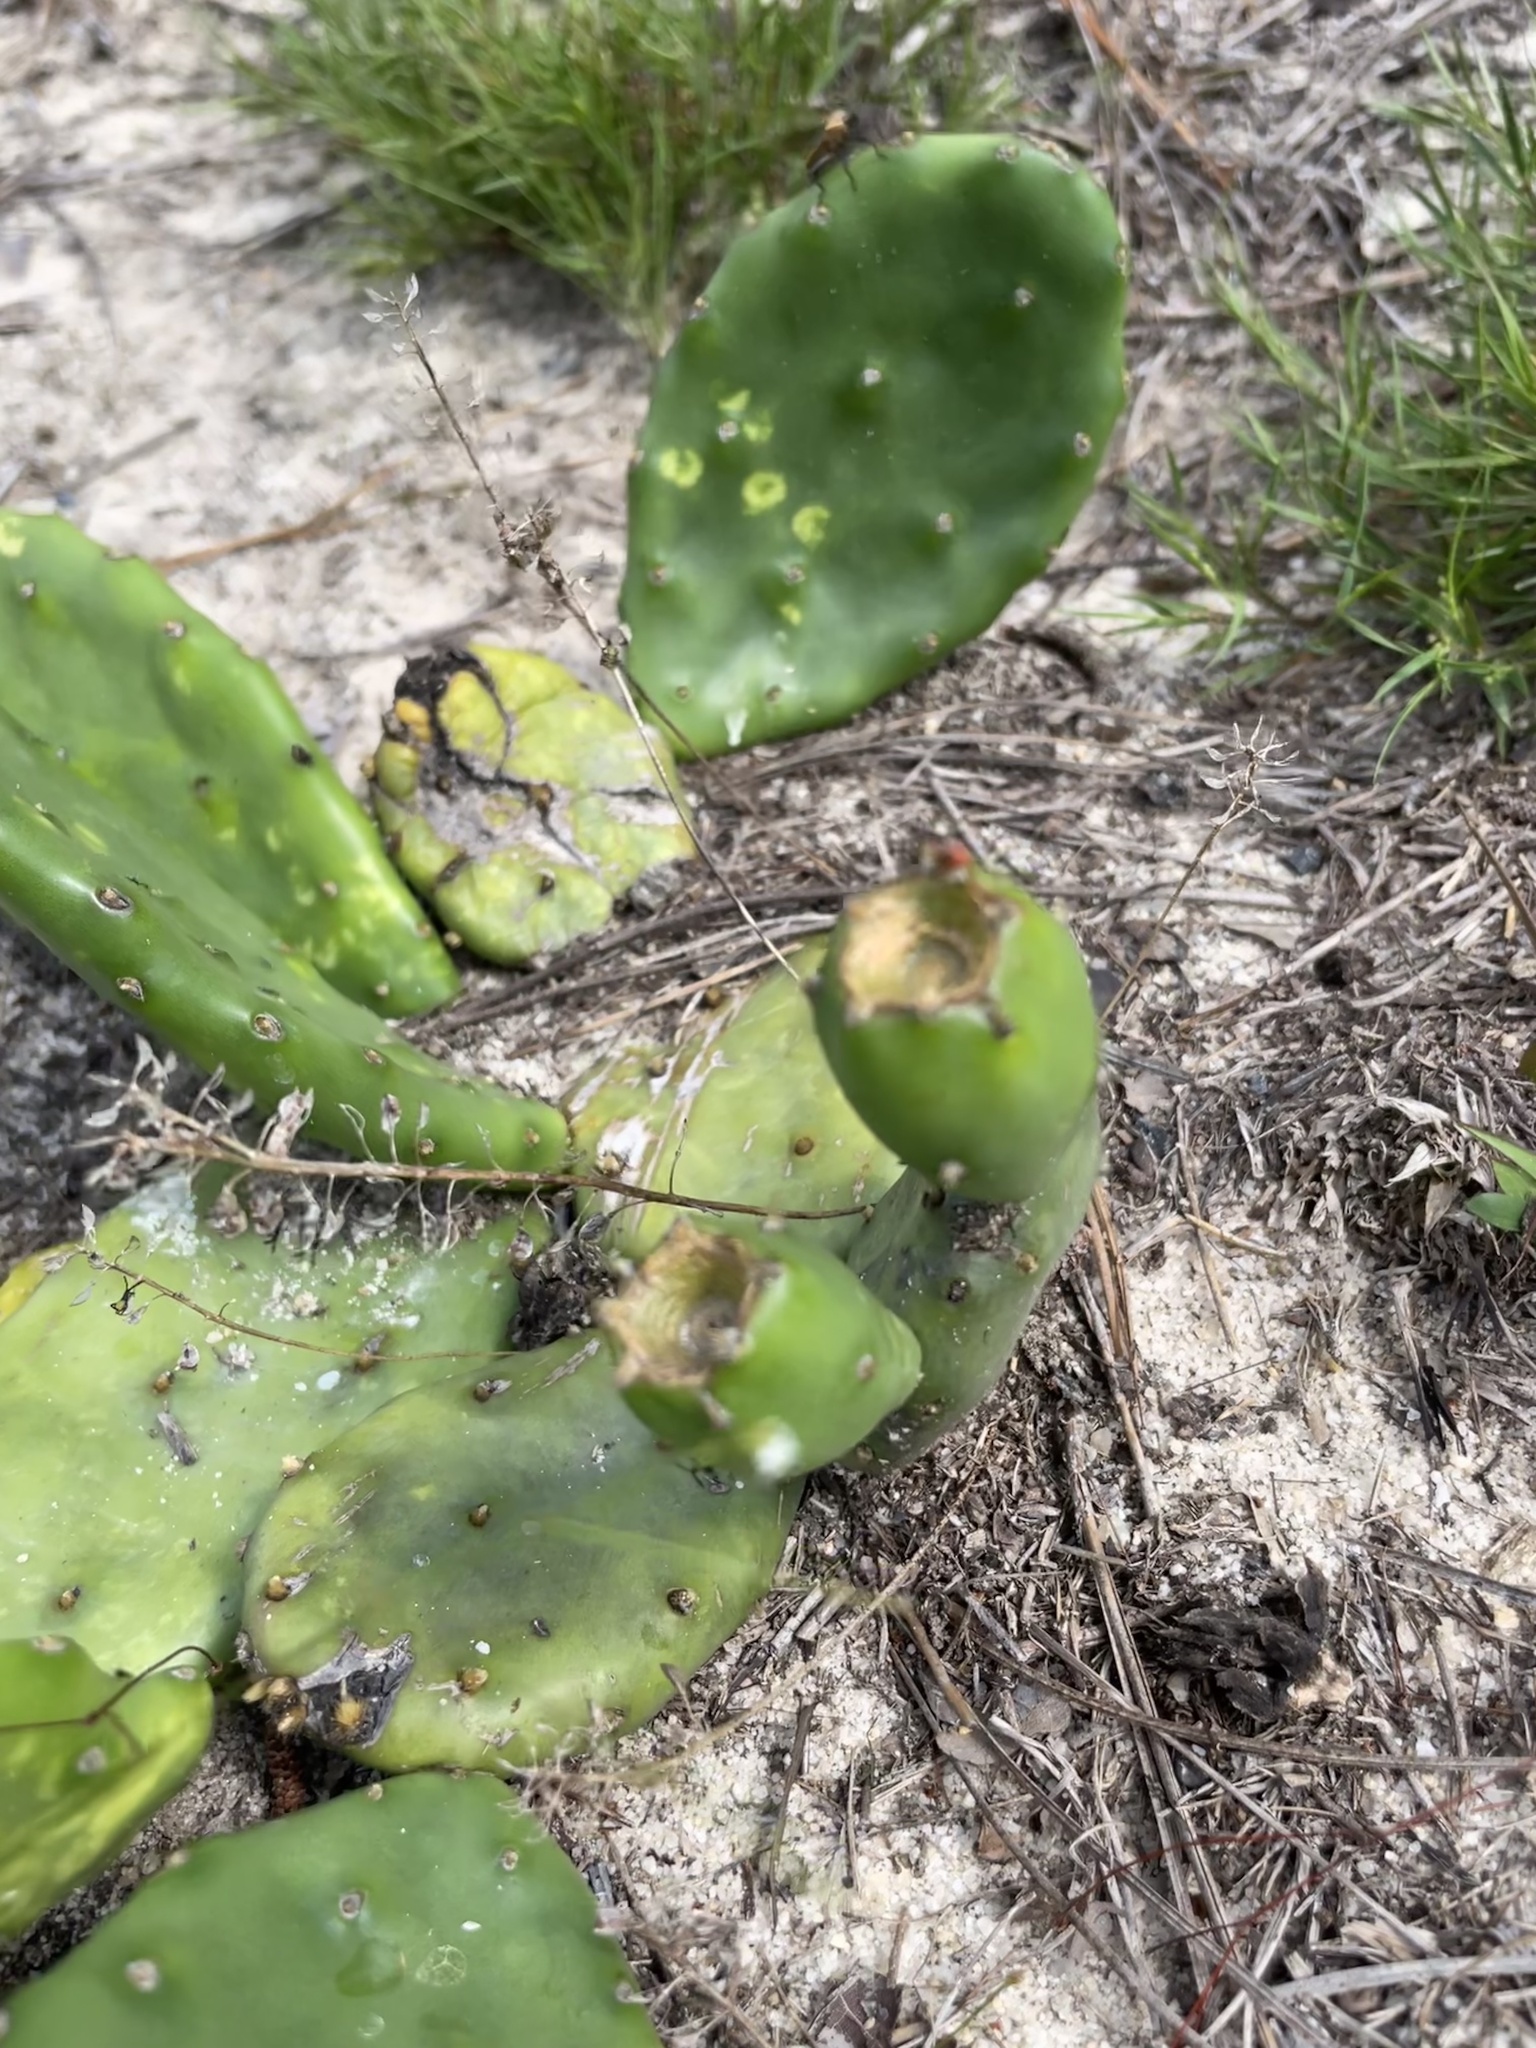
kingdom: Plantae
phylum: Tracheophyta
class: Magnoliopsida
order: Caryophyllales
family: Cactaceae
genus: Opuntia
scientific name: Opuntia mesacantha
